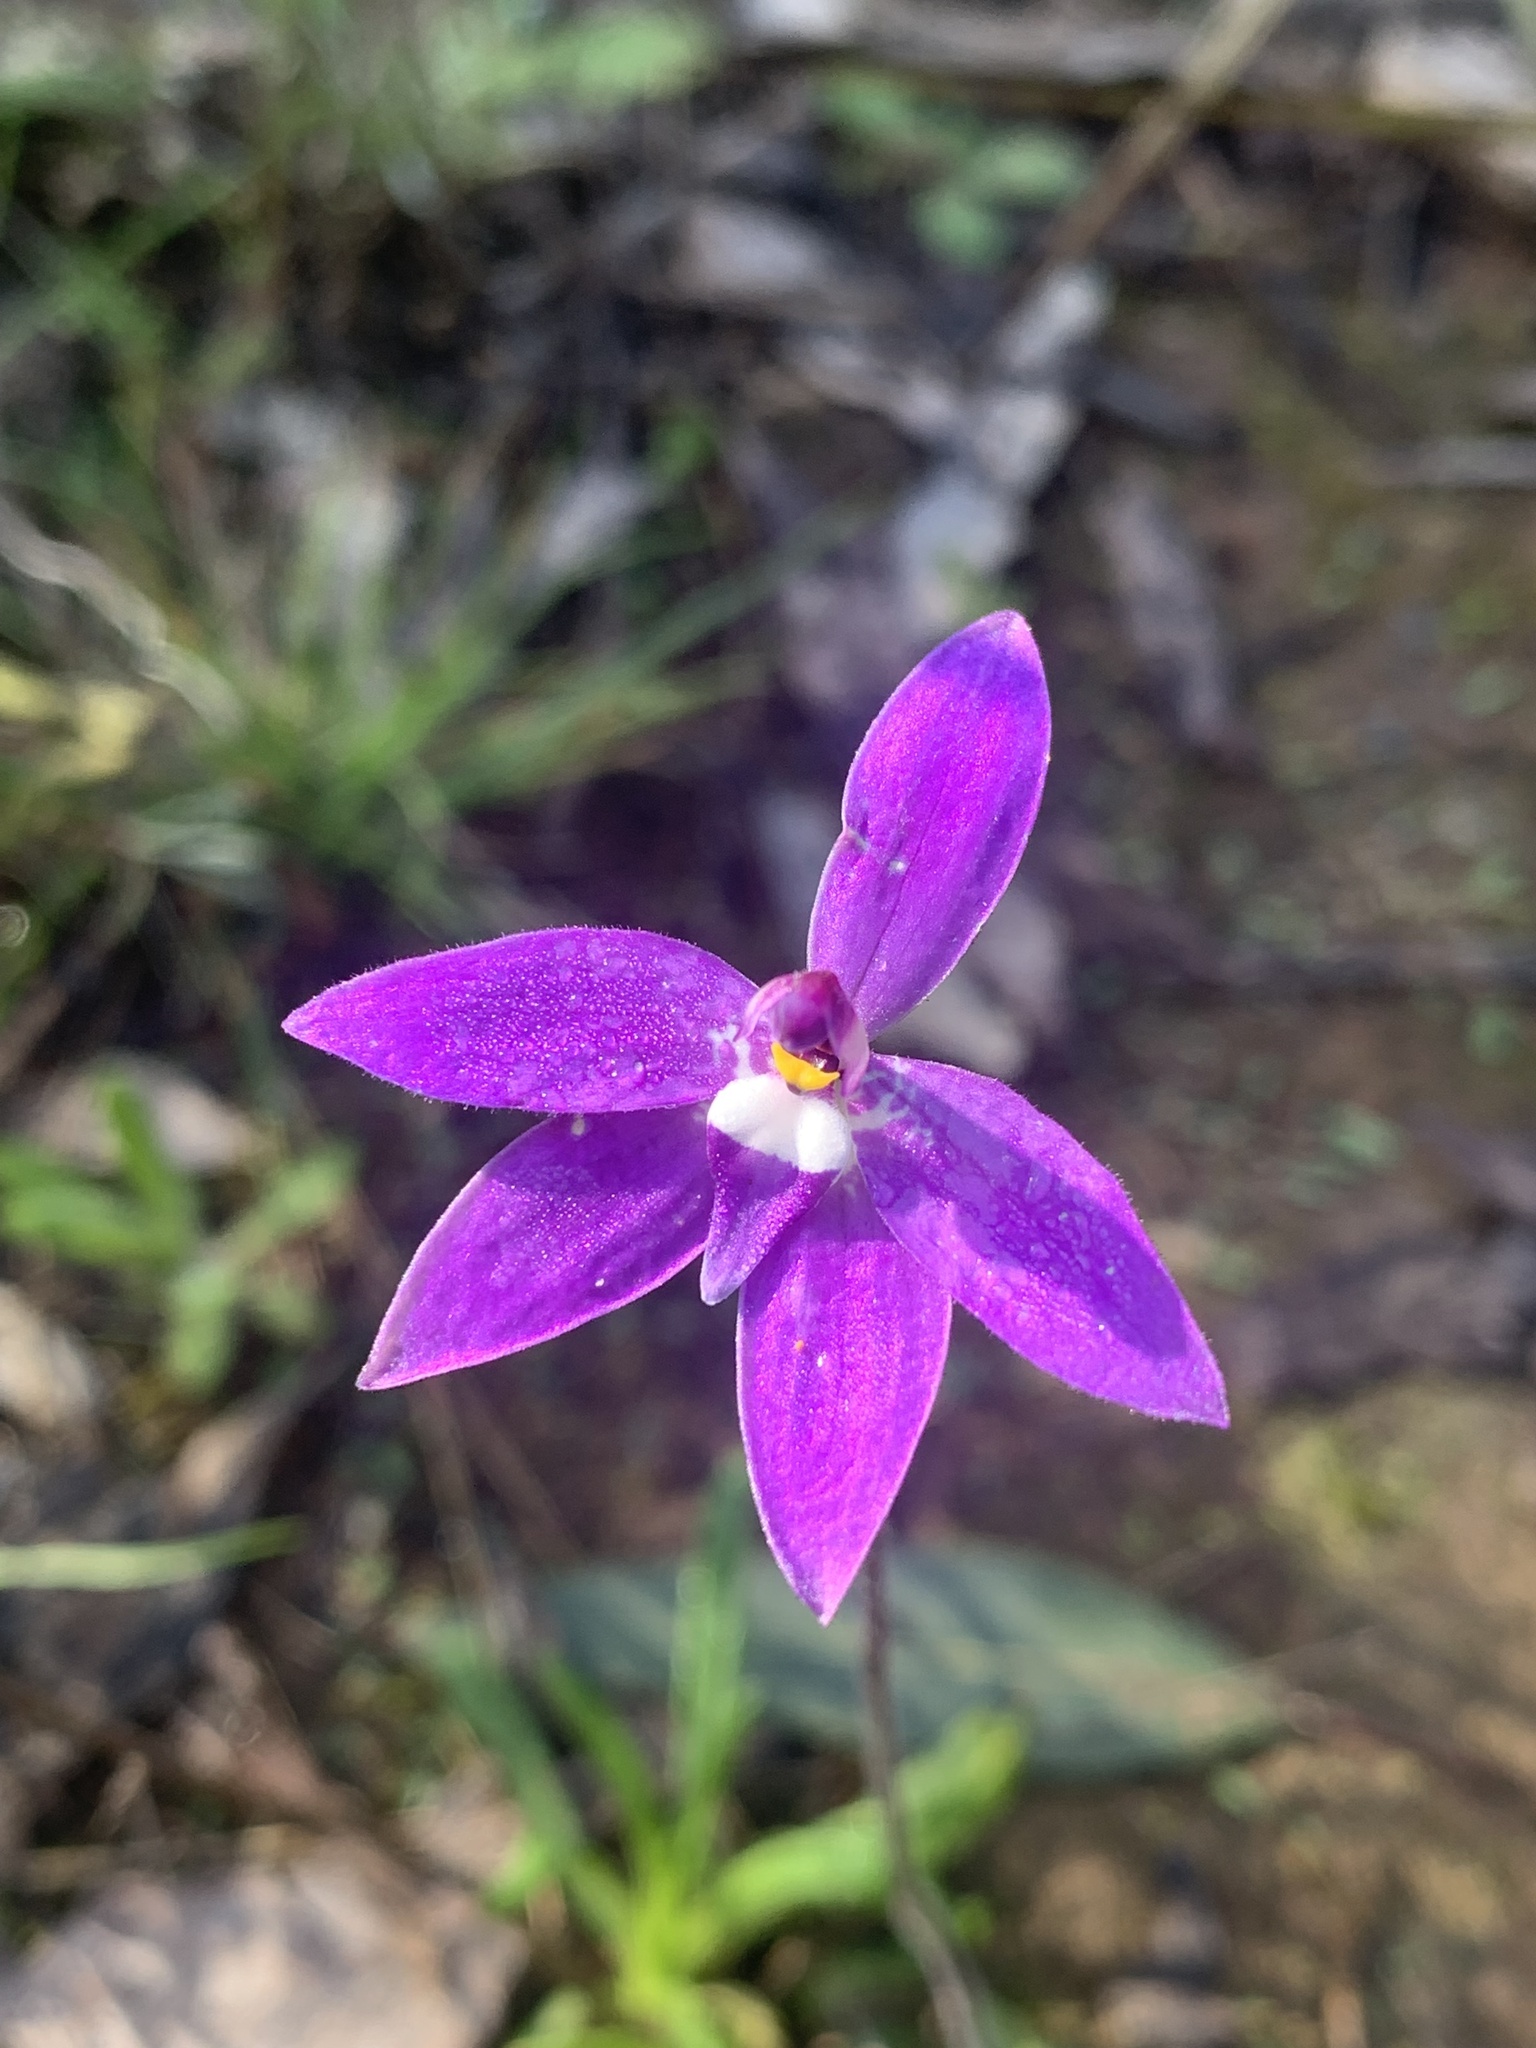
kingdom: Plantae
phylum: Tracheophyta
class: Liliopsida
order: Asparagales
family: Orchidaceae
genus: Caladenia
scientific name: Caladenia major
